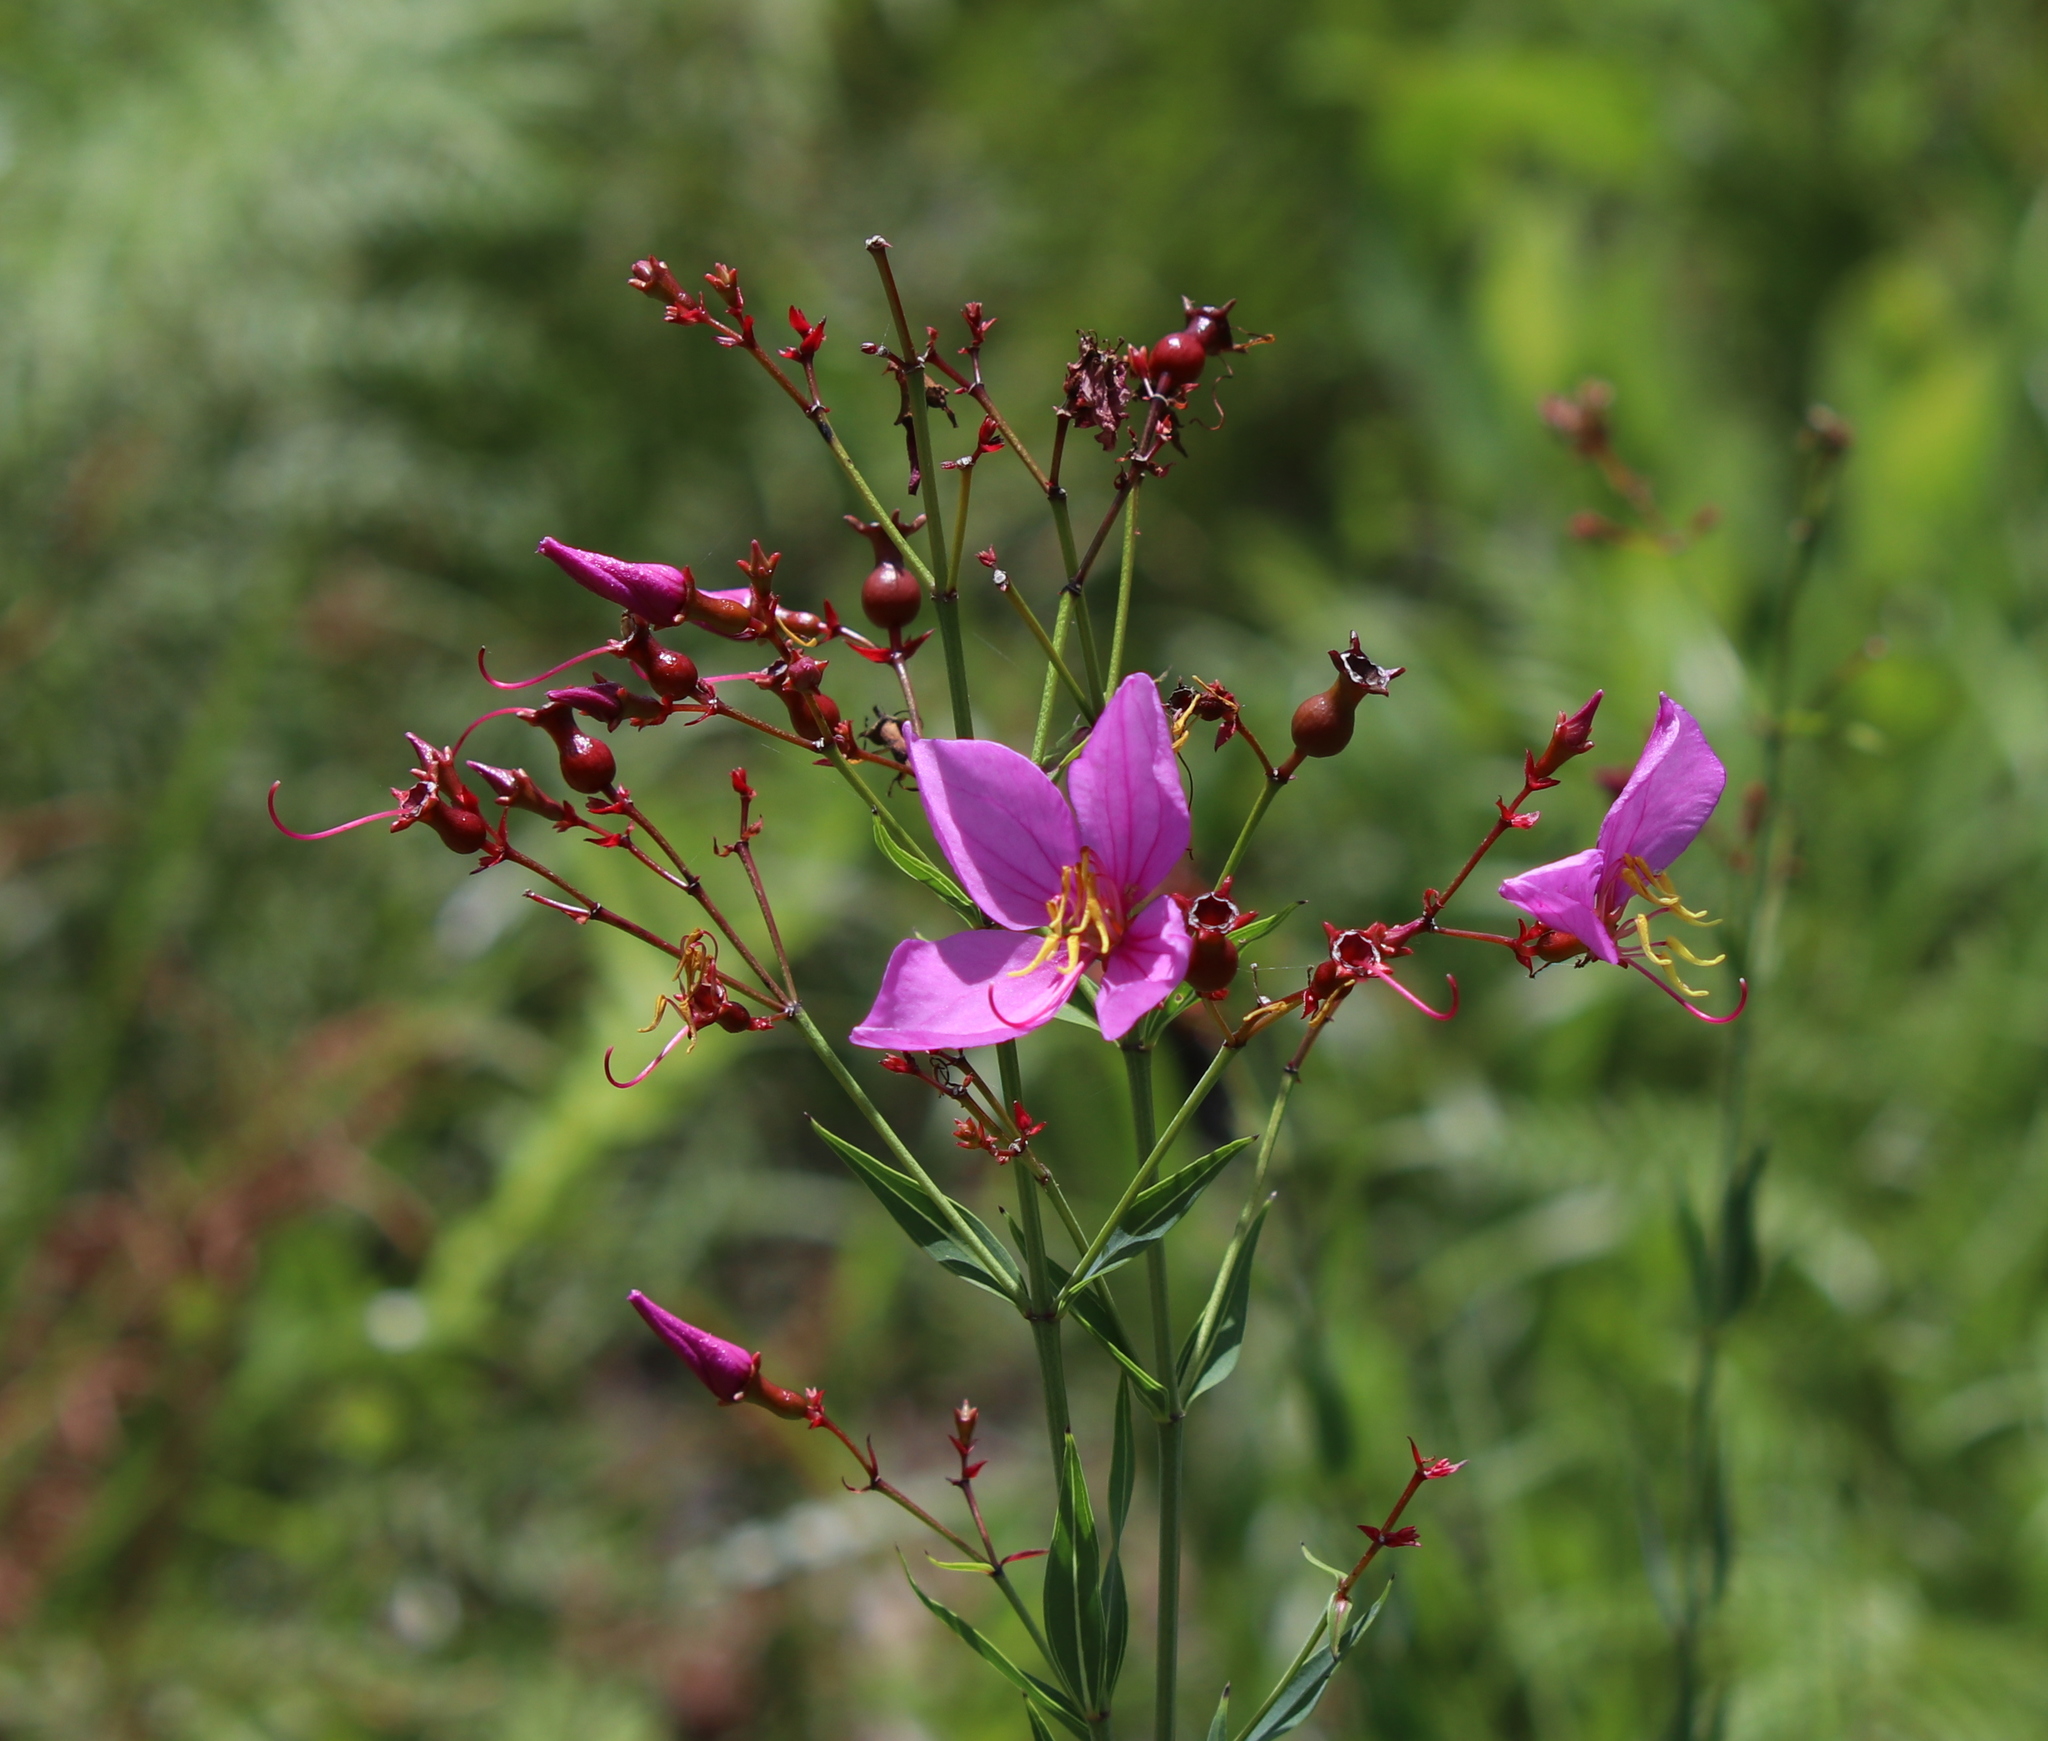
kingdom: Plantae
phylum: Tracheophyta
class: Magnoliopsida
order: Myrtales
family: Melastomataceae
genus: Rhexia
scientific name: Rhexia alifanus
